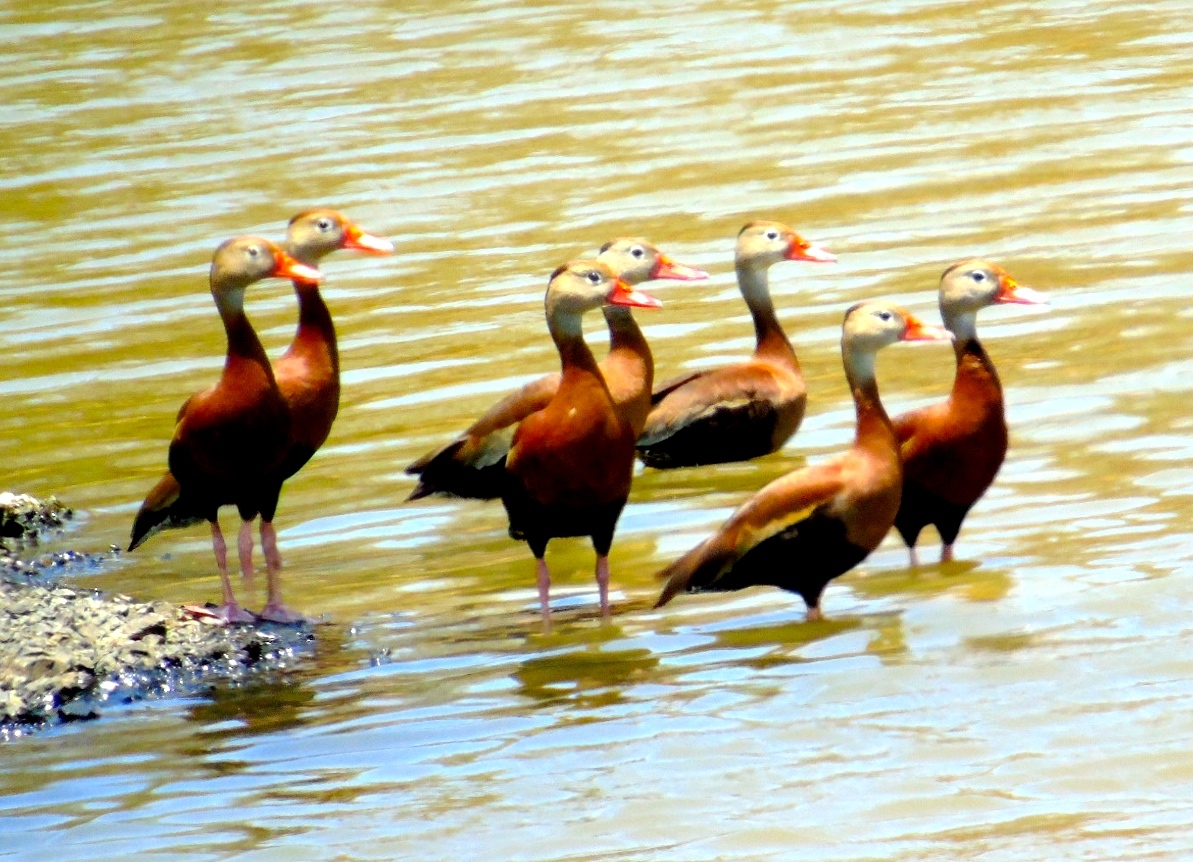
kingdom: Animalia
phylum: Chordata
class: Aves
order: Anseriformes
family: Anatidae
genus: Dendrocygna
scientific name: Dendrocygna autumnalis
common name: Black-bellied whistling duck
